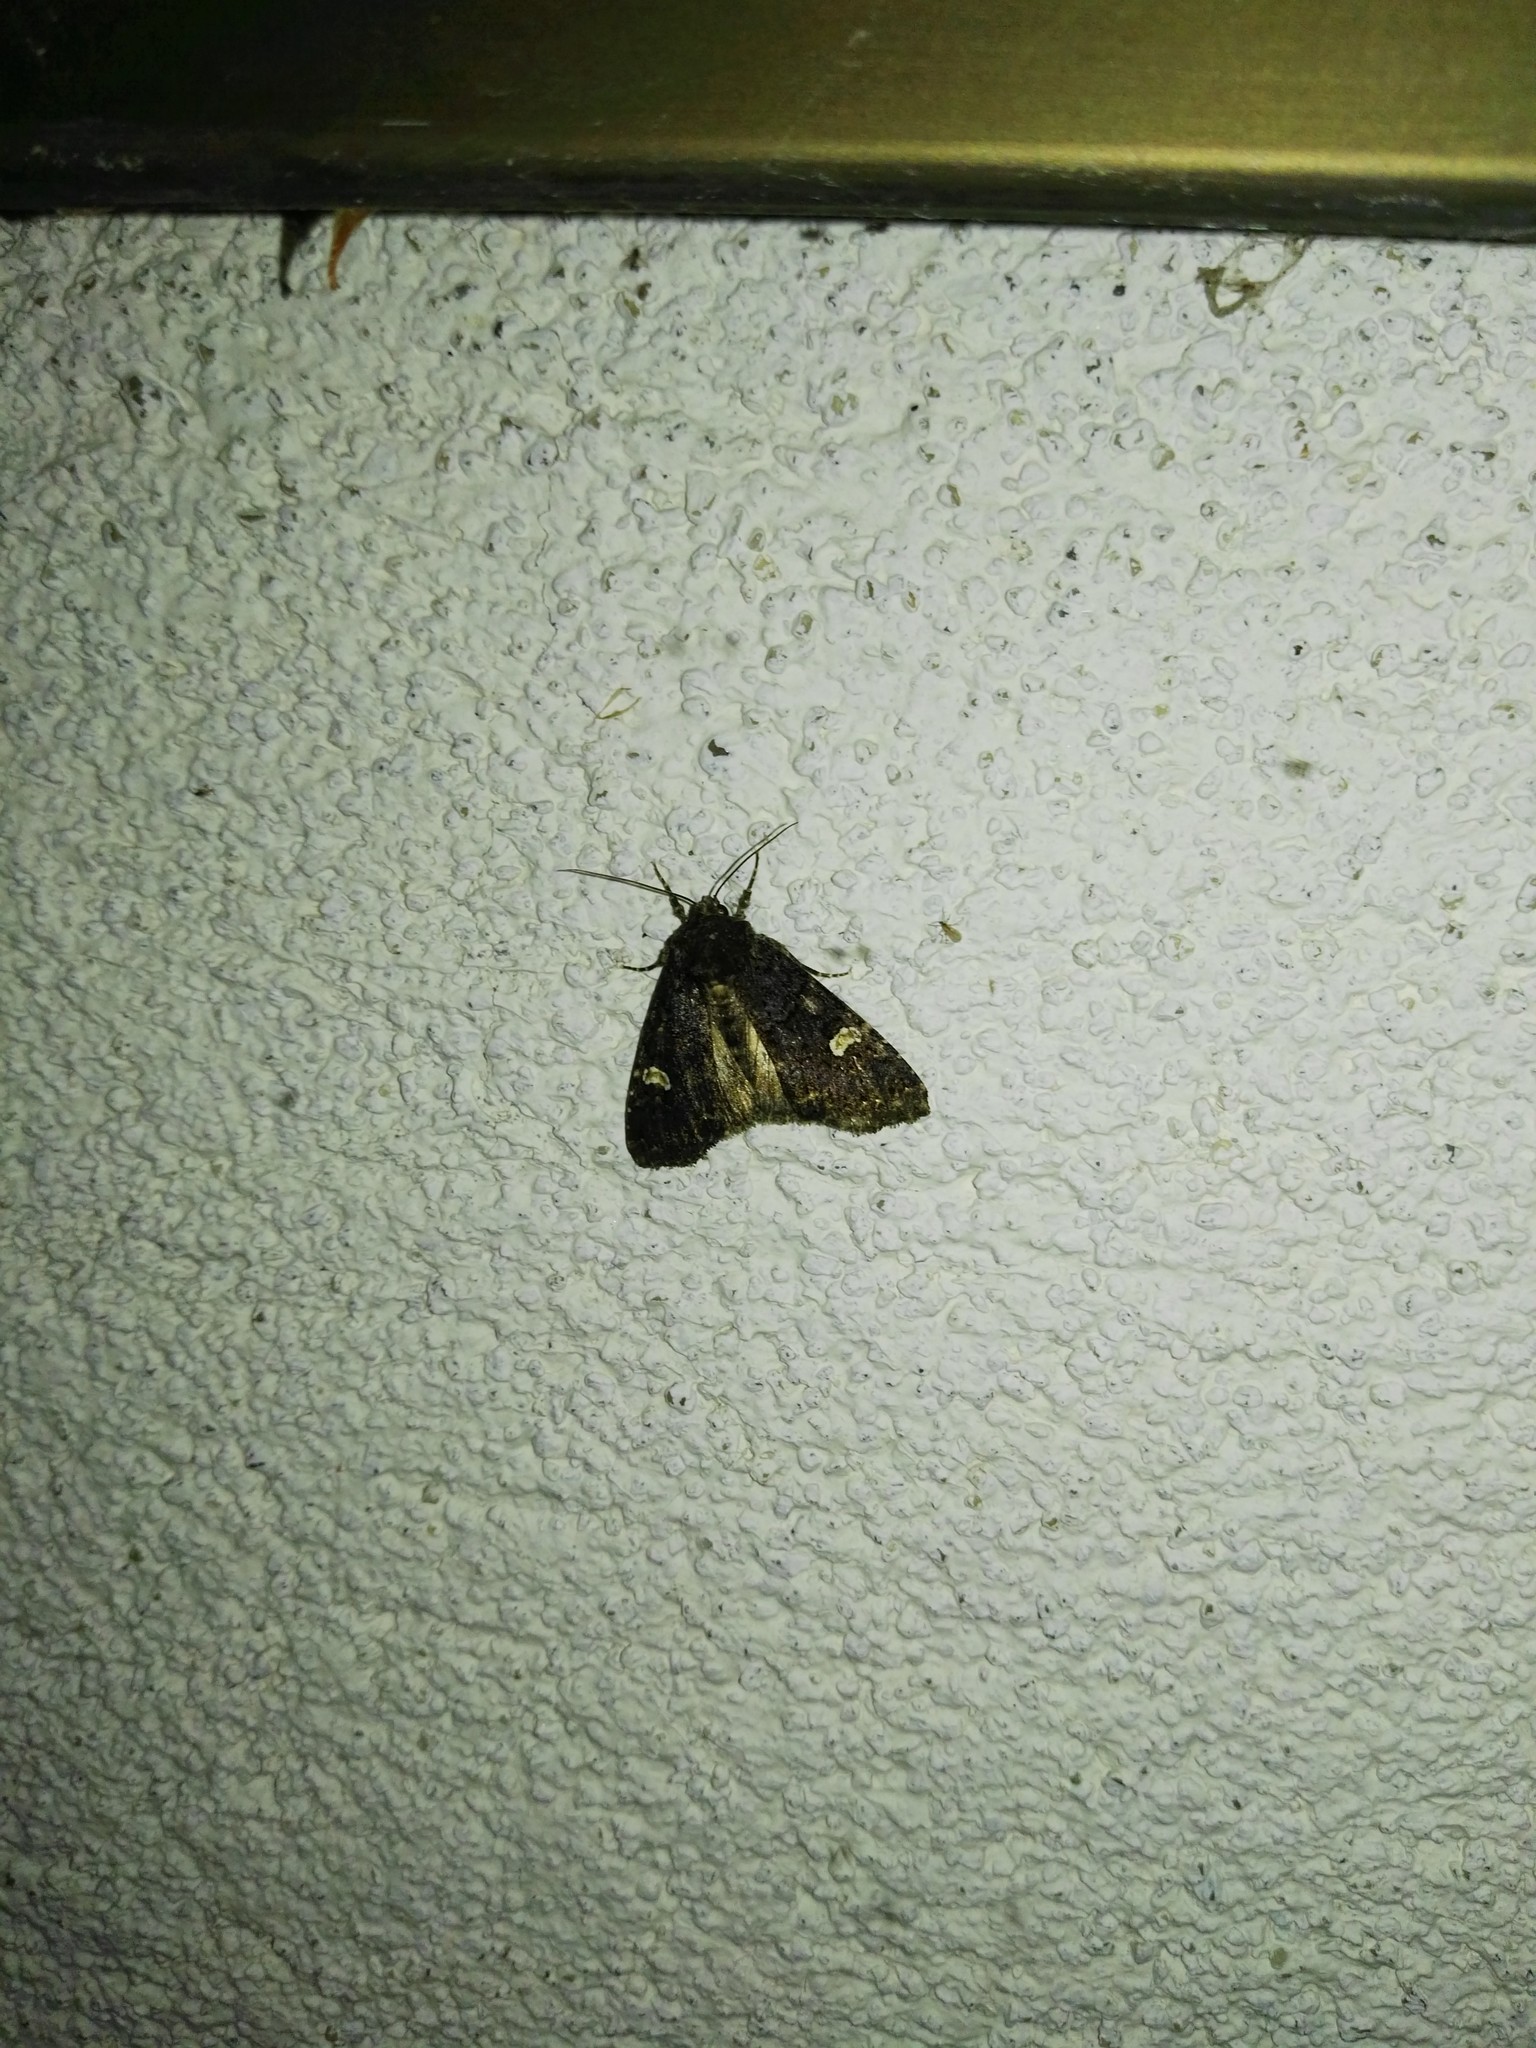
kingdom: Animalia
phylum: Arthropoda
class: Insecta
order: Lepidoptera
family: Noctuidae
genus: Melanchra
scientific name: Melanchra persicariae
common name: Dot moth
